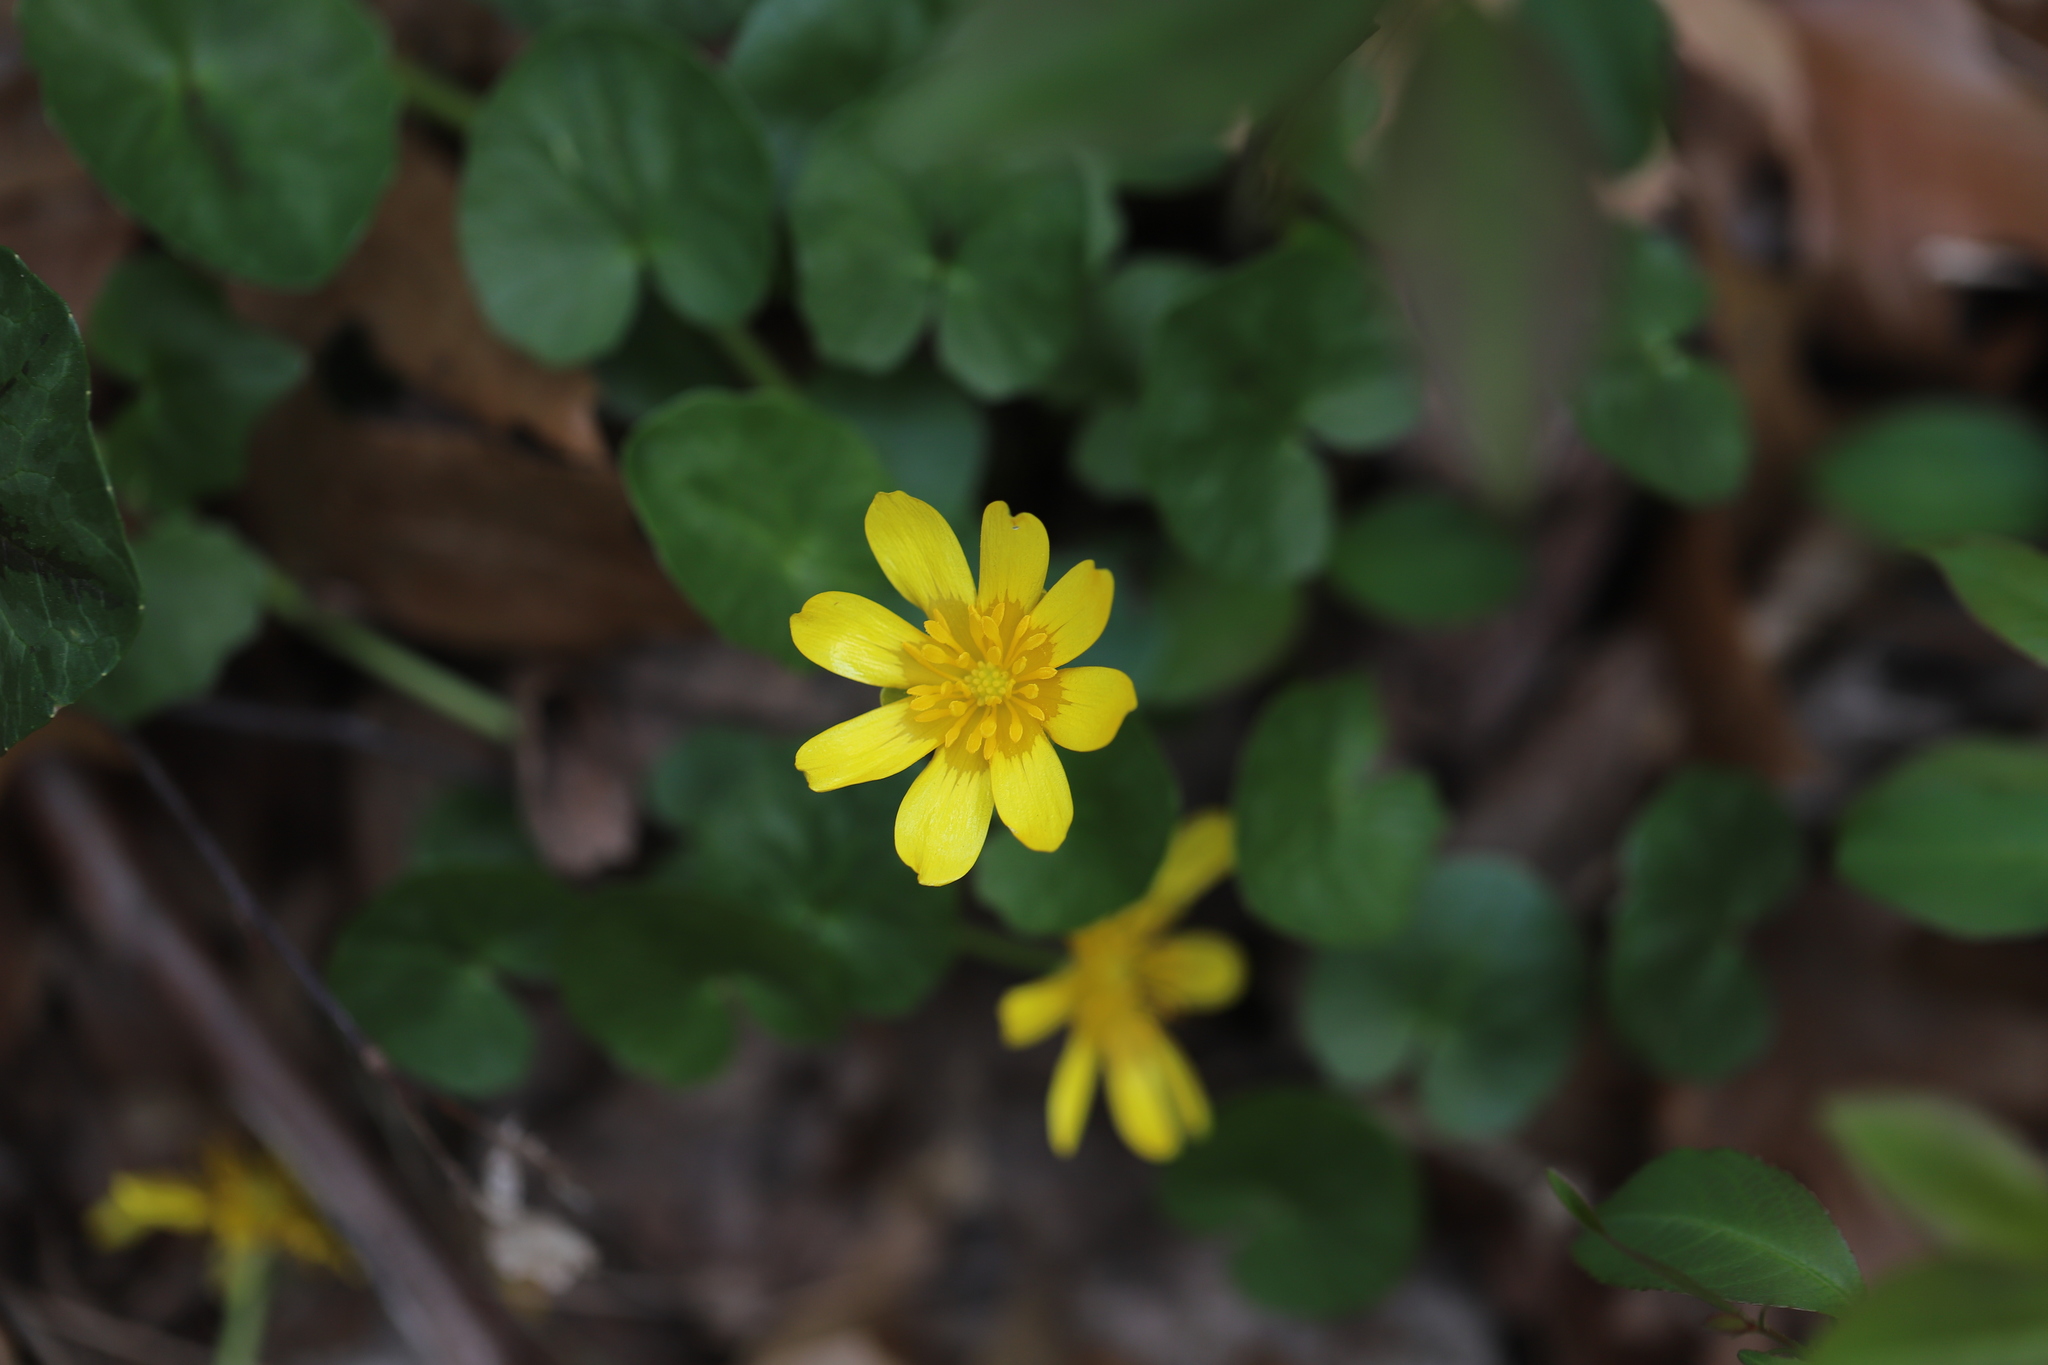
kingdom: Plantae
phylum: Tracheophyta
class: Magnoliopsida
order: Ranunculales
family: Ranunculaceae
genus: Ficaria
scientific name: Ficaria verna
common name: Lesser celandine
